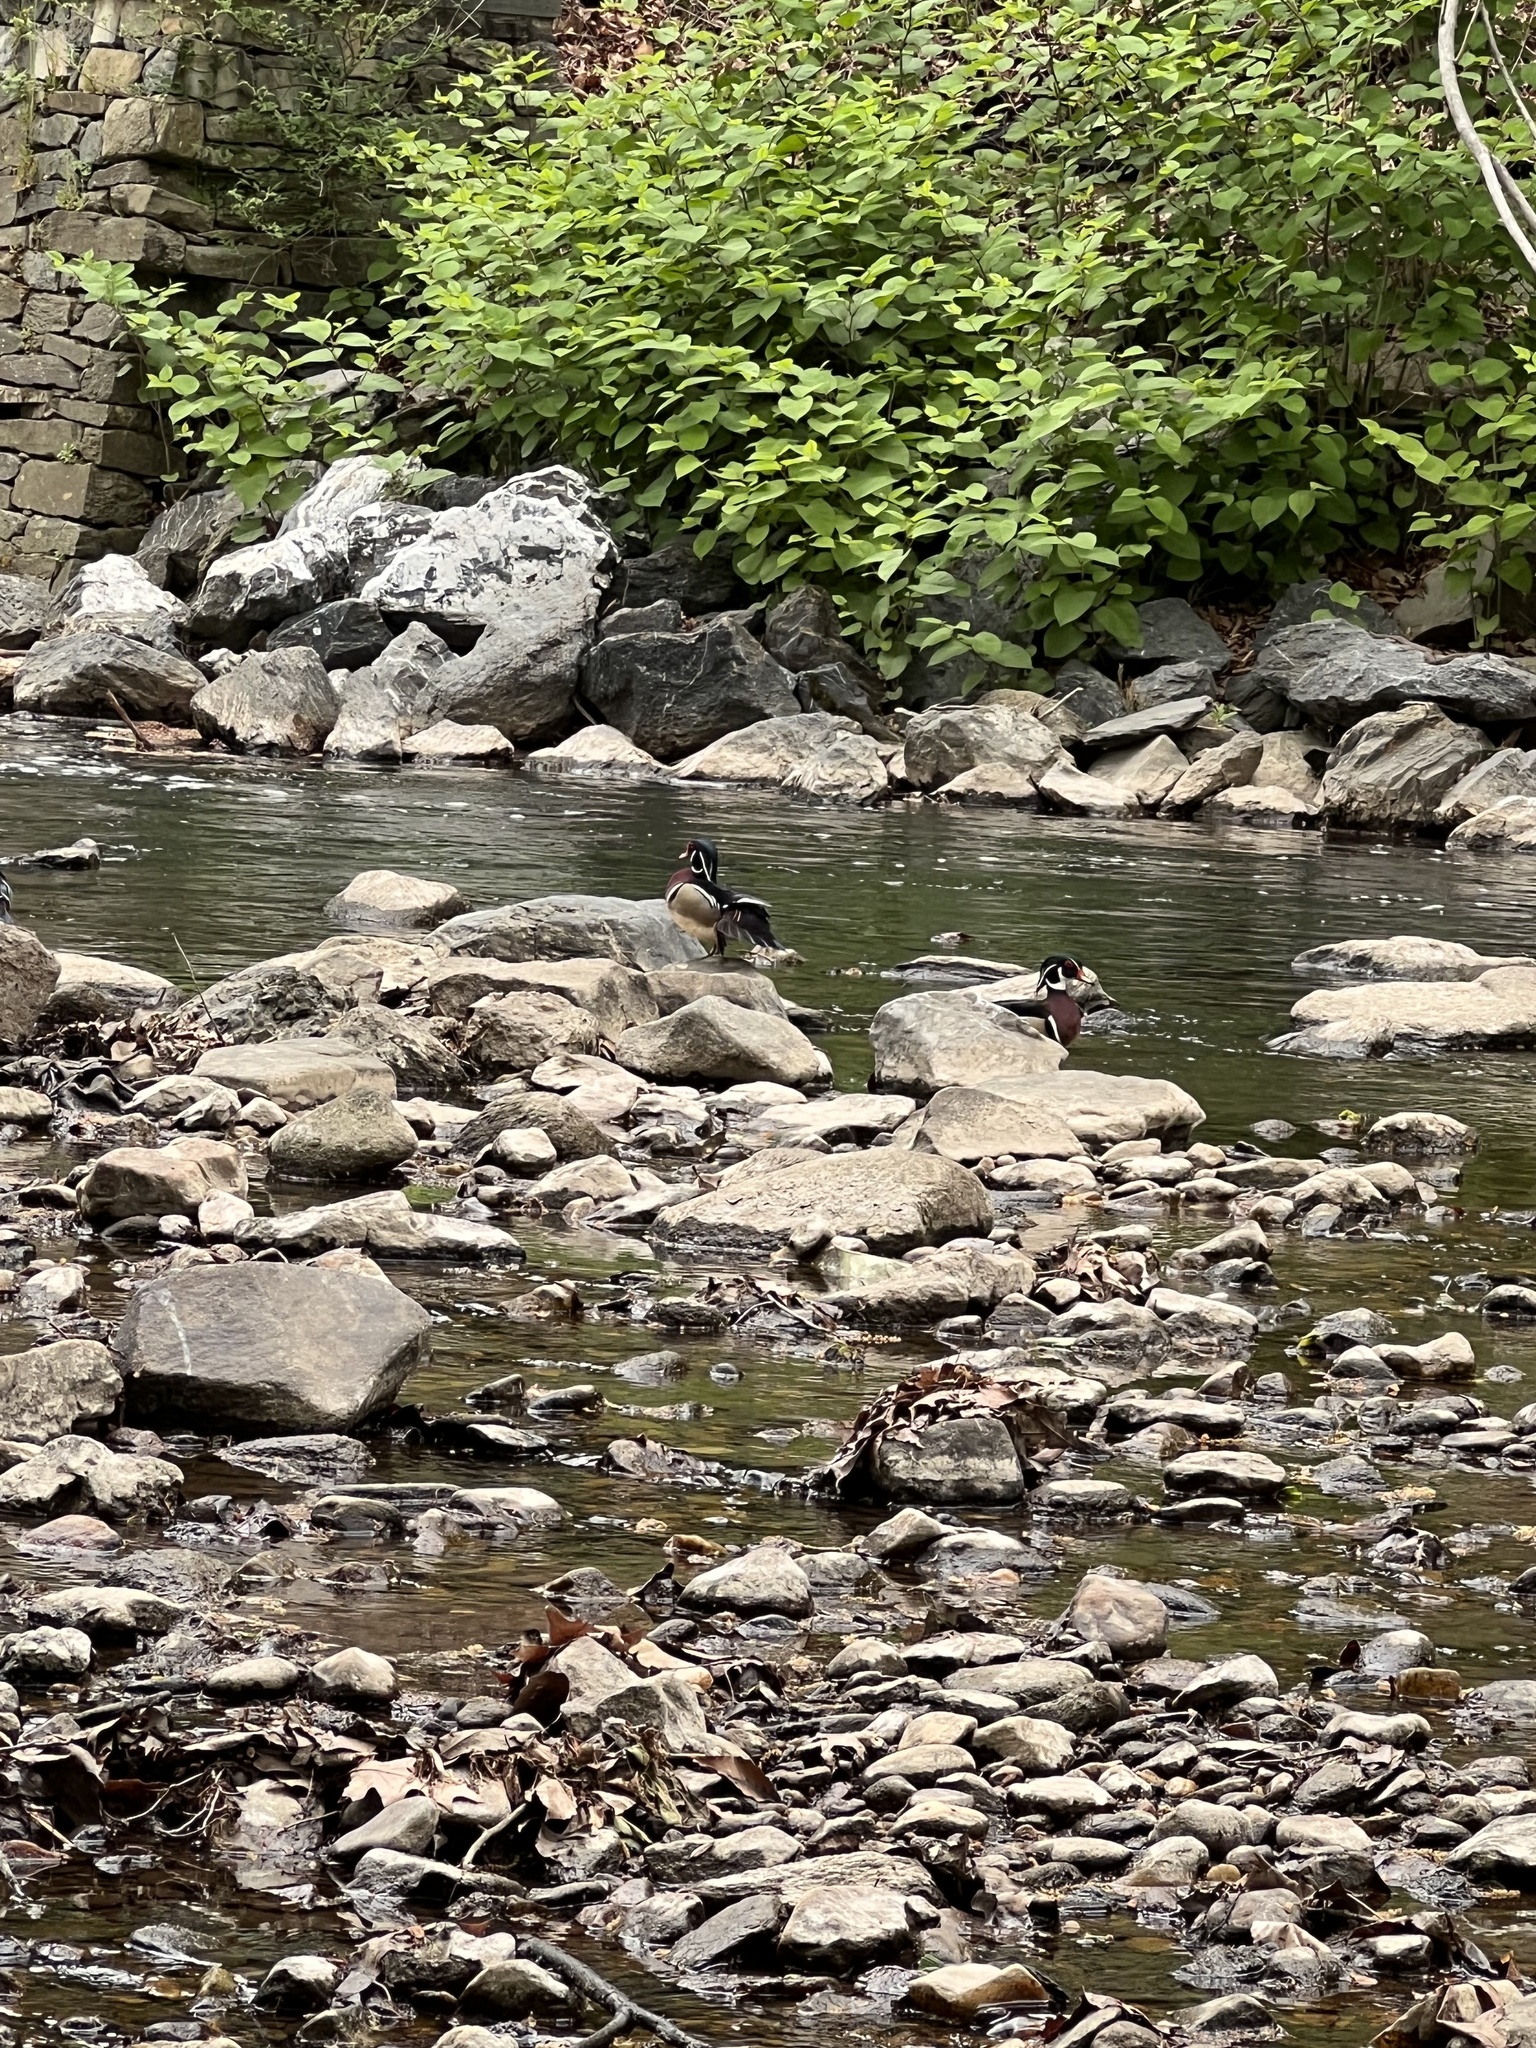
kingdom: Animalia
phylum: Chordata
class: Aves
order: Anseriformes
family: Anatidae
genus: Aix
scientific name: Aix sponsa
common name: Wood duck
